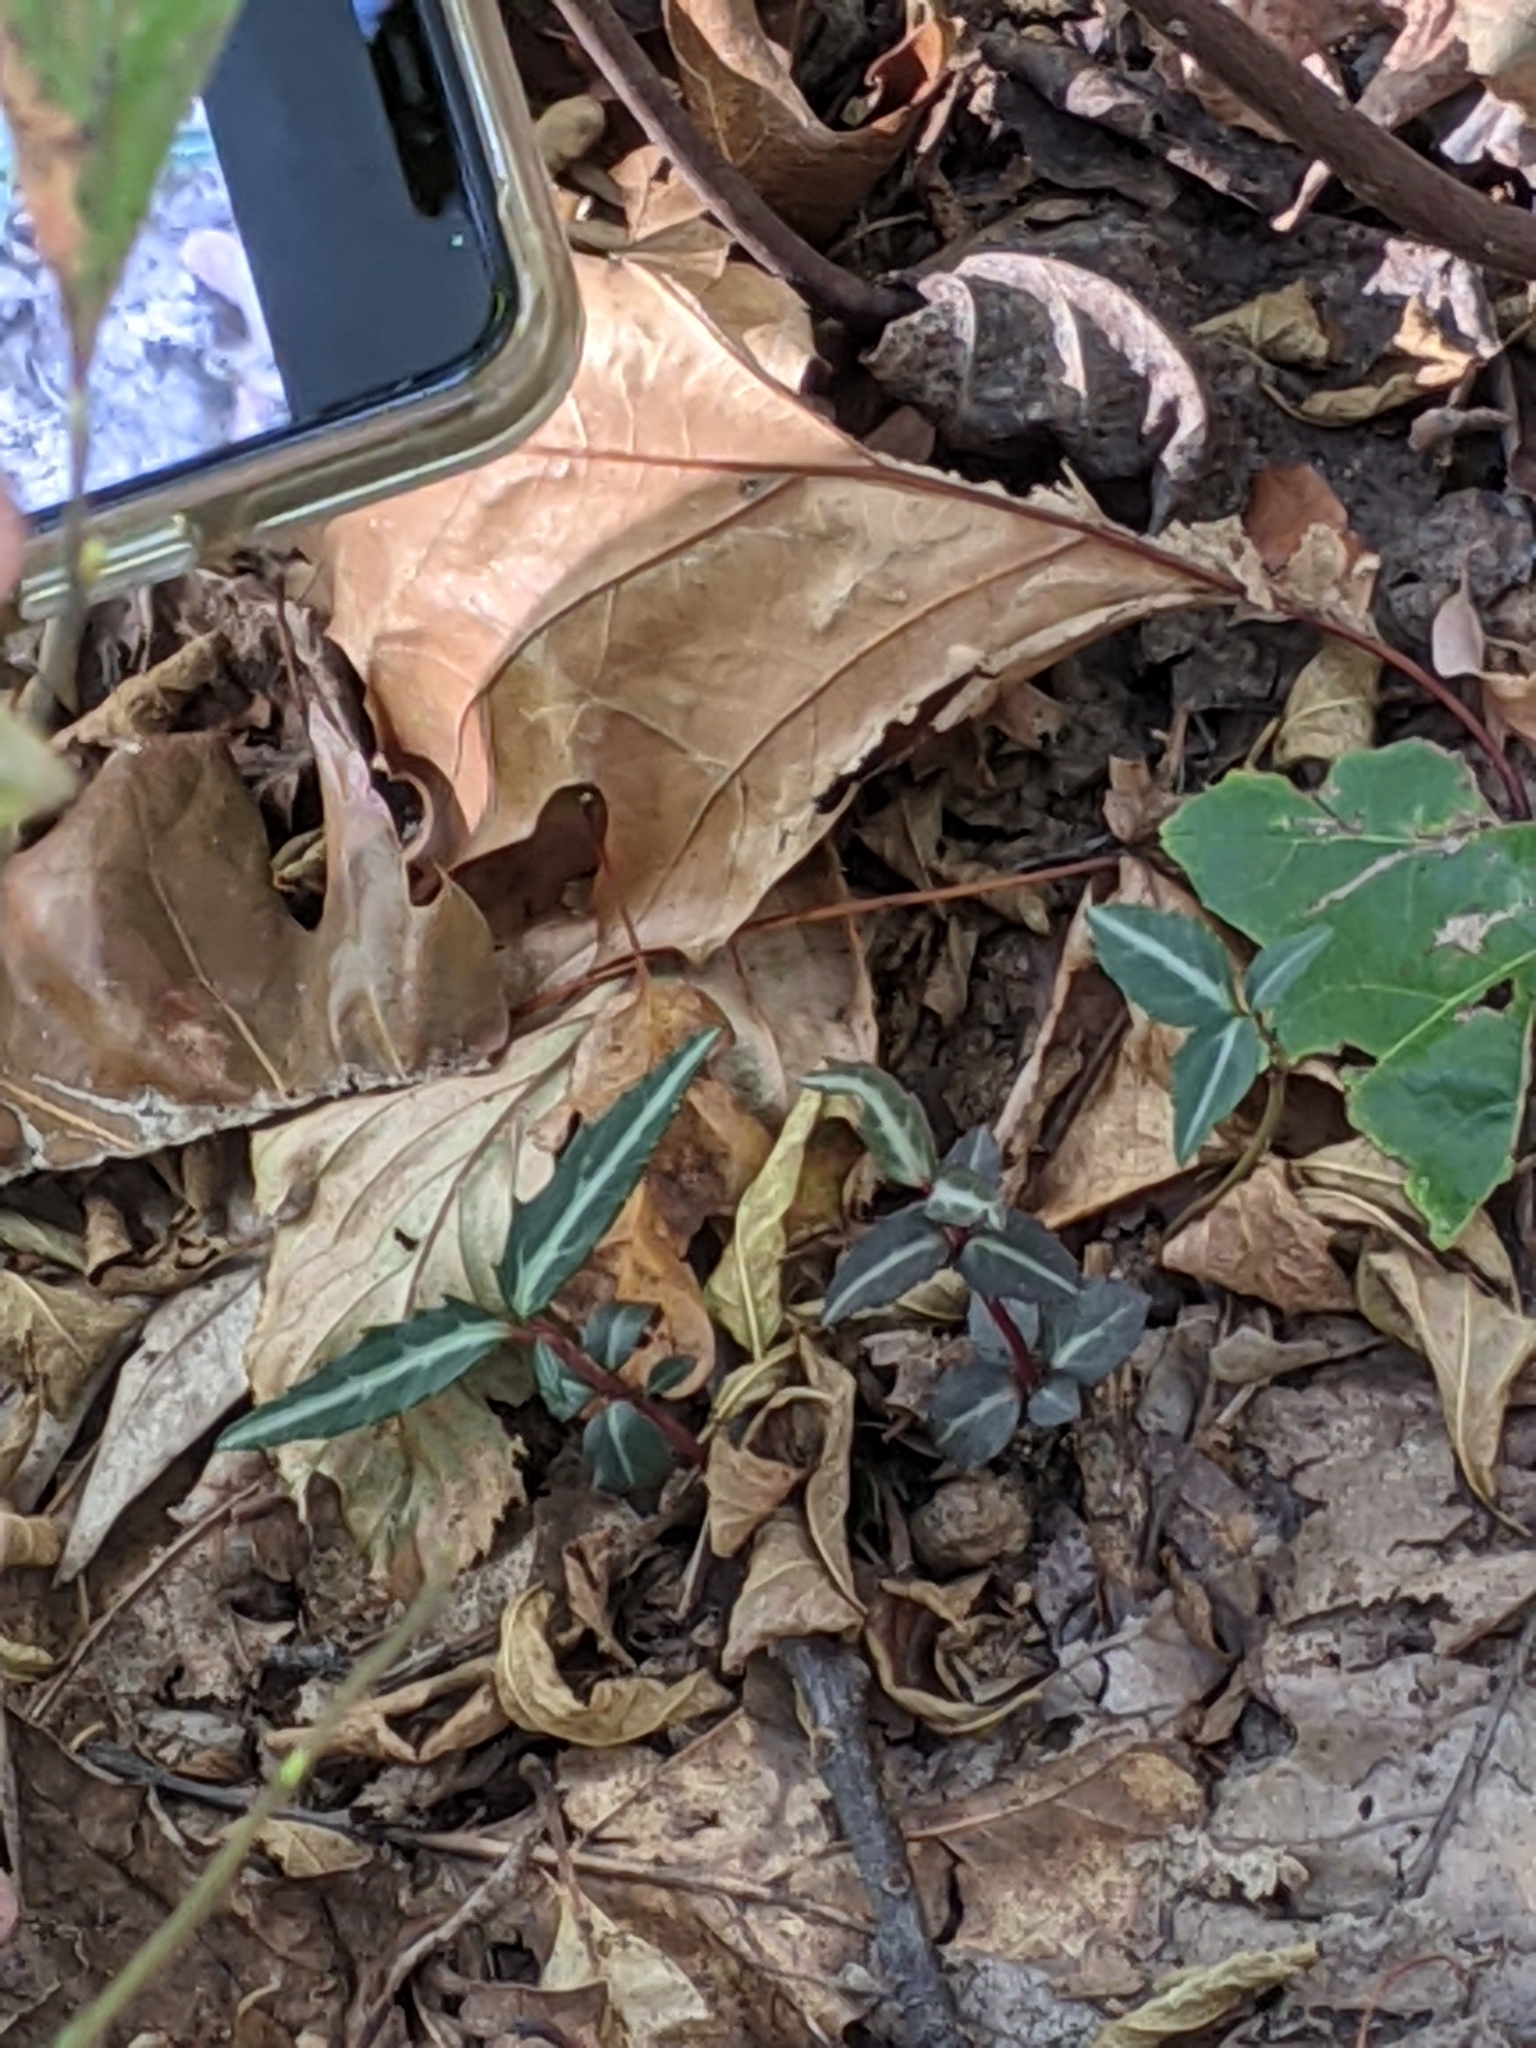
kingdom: Plantae
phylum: Tracheophyta
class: Magnoliopsida
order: Ericales
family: Ericaceae
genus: Chimaphila
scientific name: Chimaphila maculata
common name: Spotted pipsissewa
